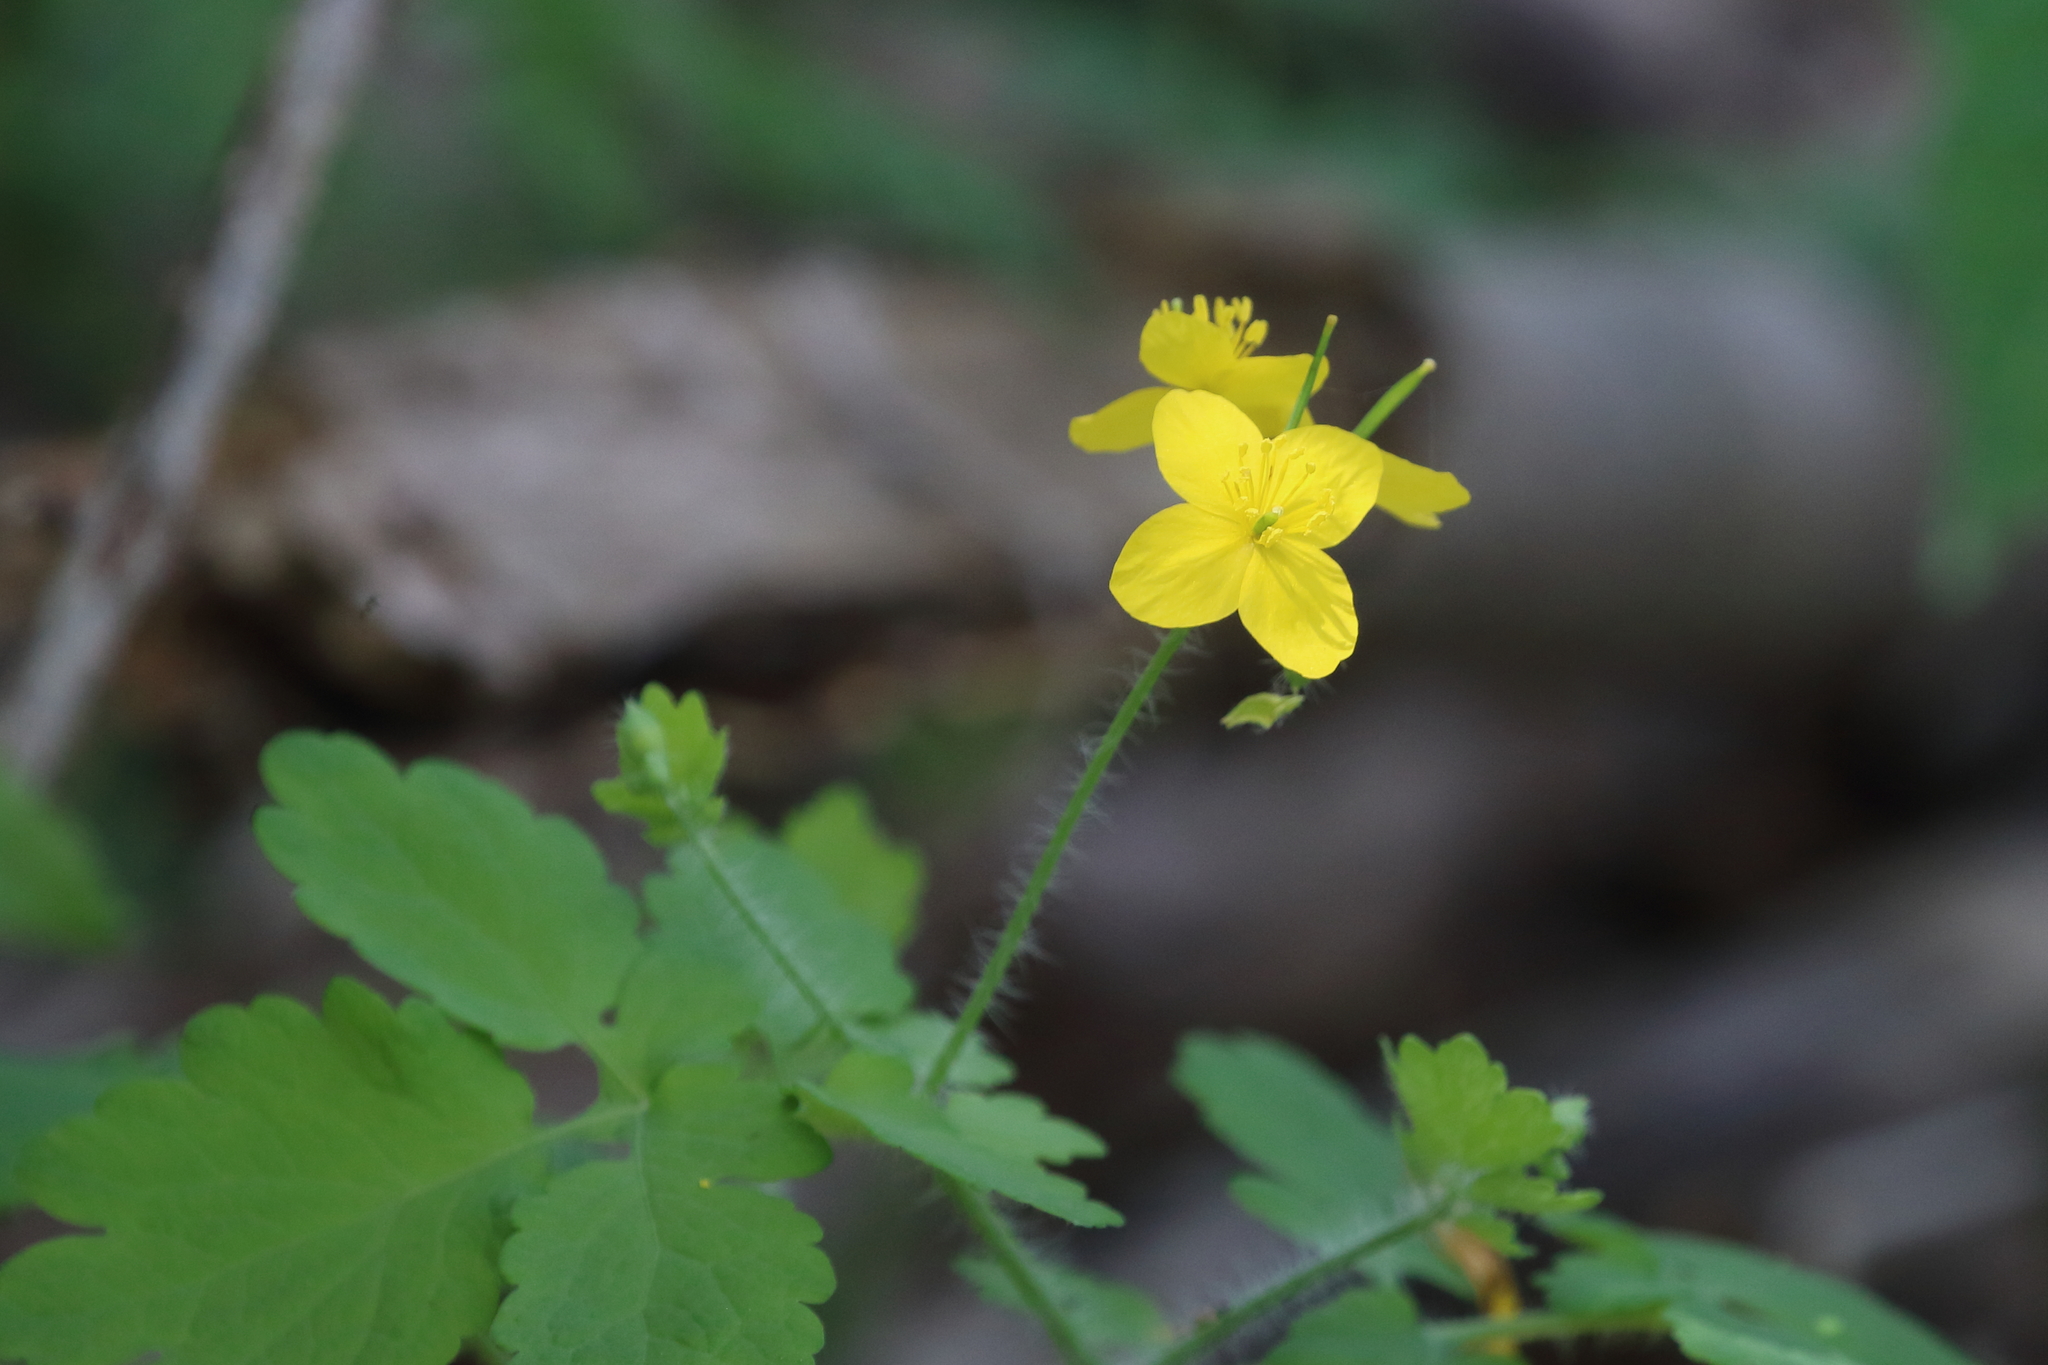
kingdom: Plantae
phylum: Tracheophyta
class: Magnoliopsida
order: Ranunculales
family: Papaveraceae
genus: Chelidonium
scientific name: Chelidonium majus
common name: Greater celandine
